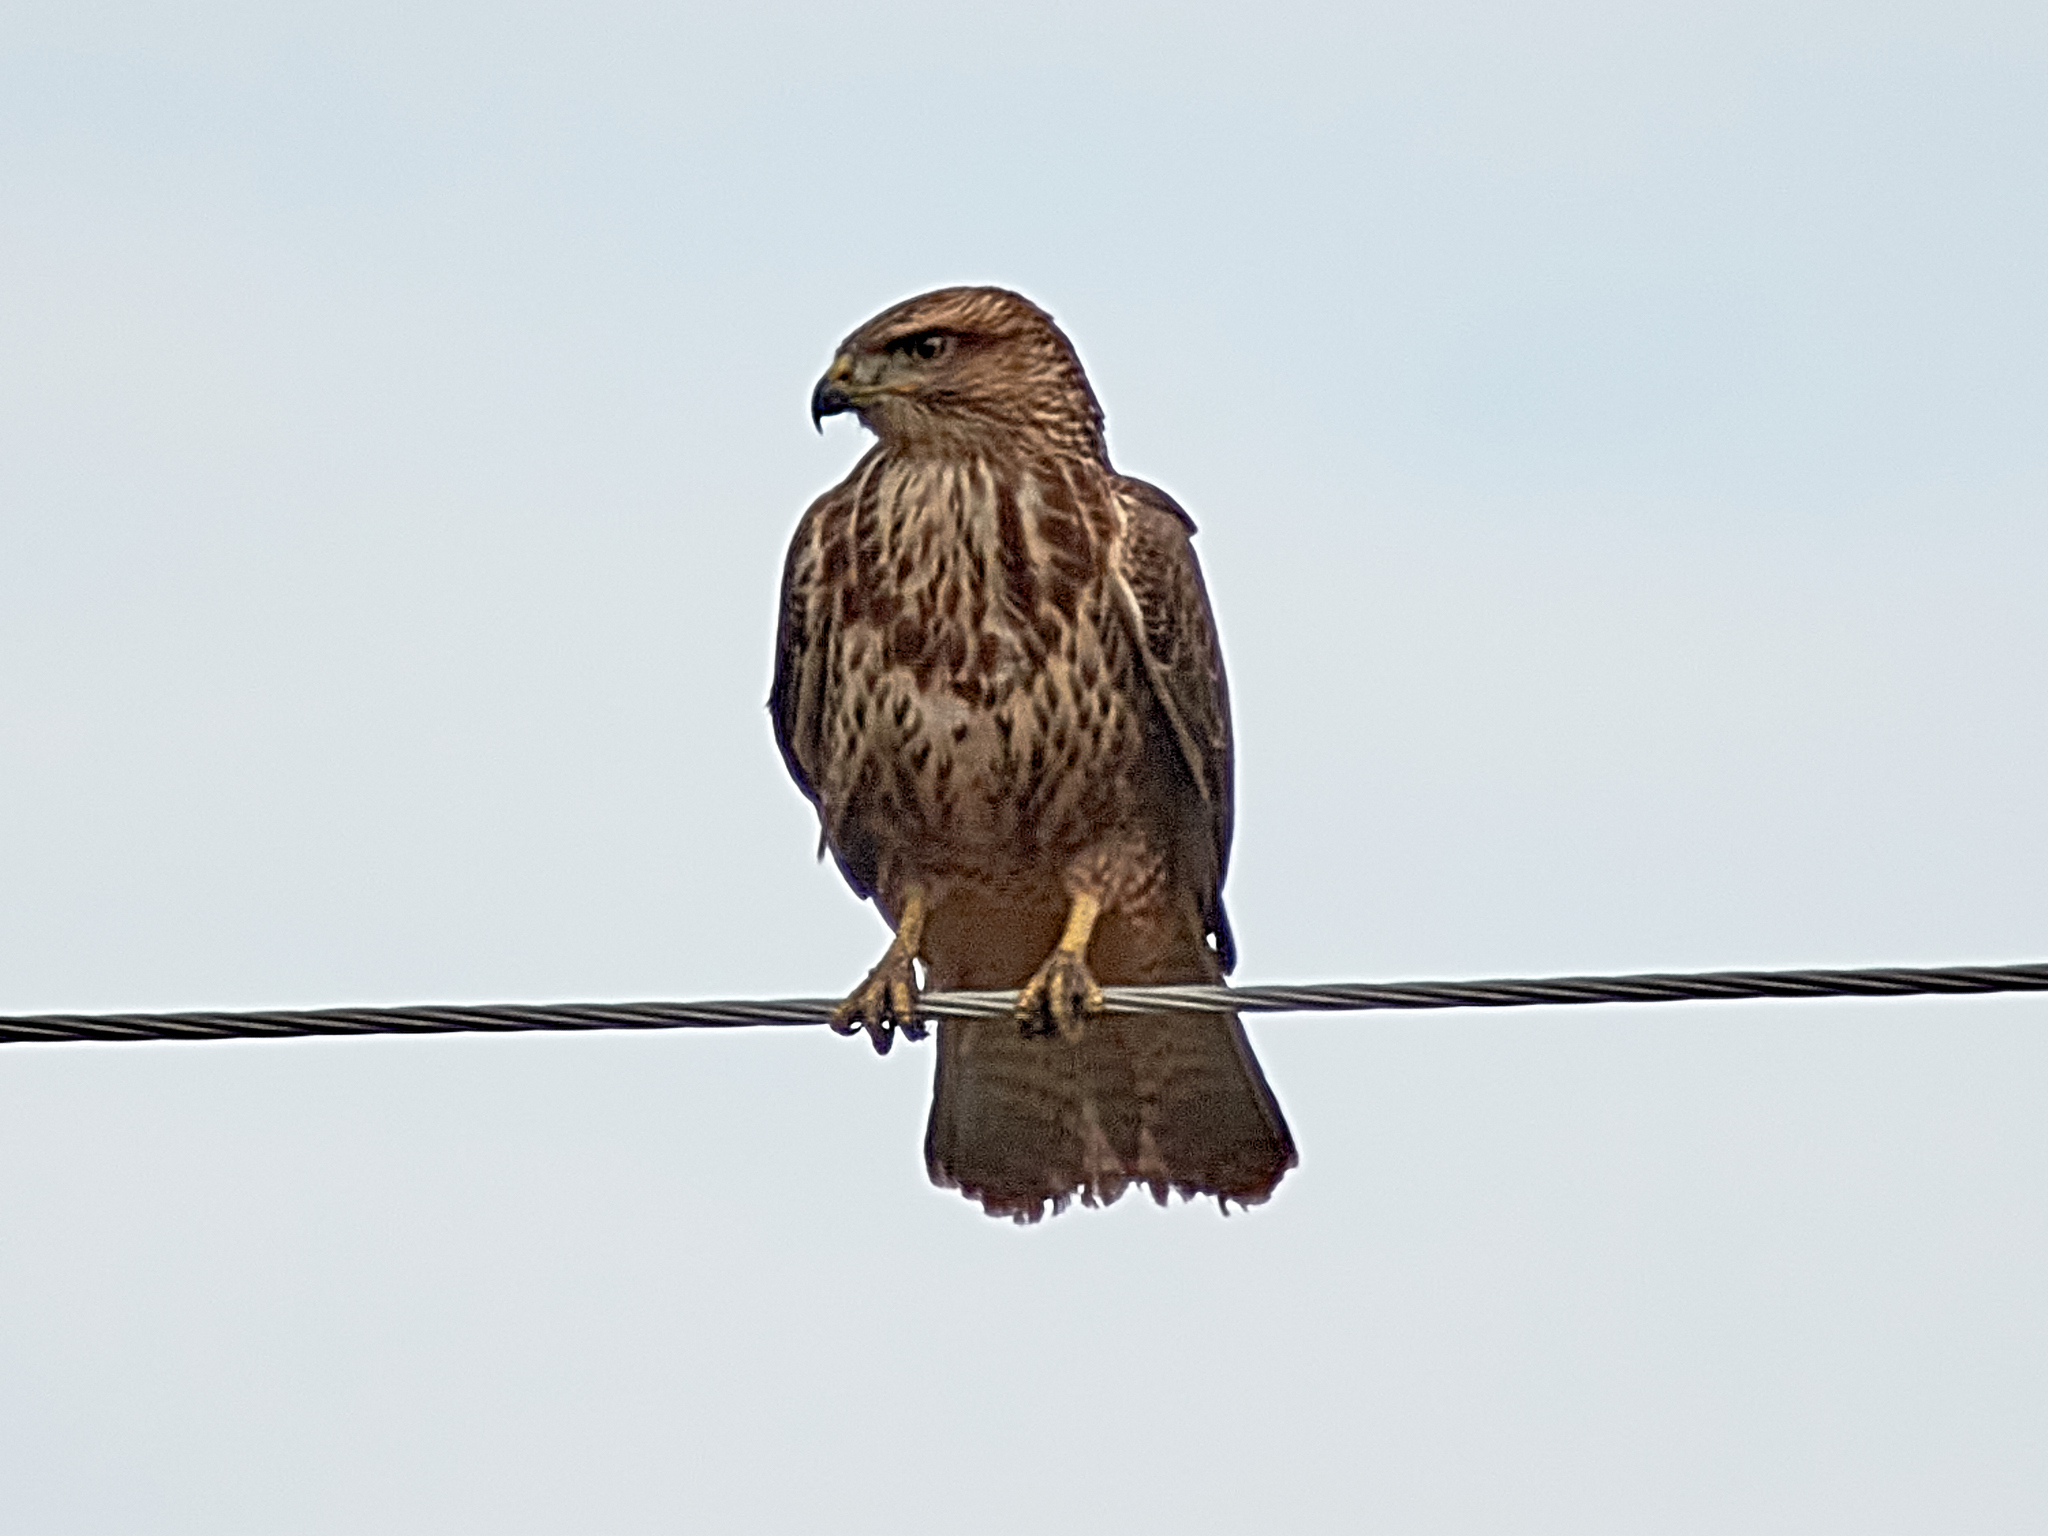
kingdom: Animalia
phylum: Chordata
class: Aves
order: Accipitriformes
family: Accipitridae
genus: Buteo
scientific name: Buteo buteo
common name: Common buzzard
